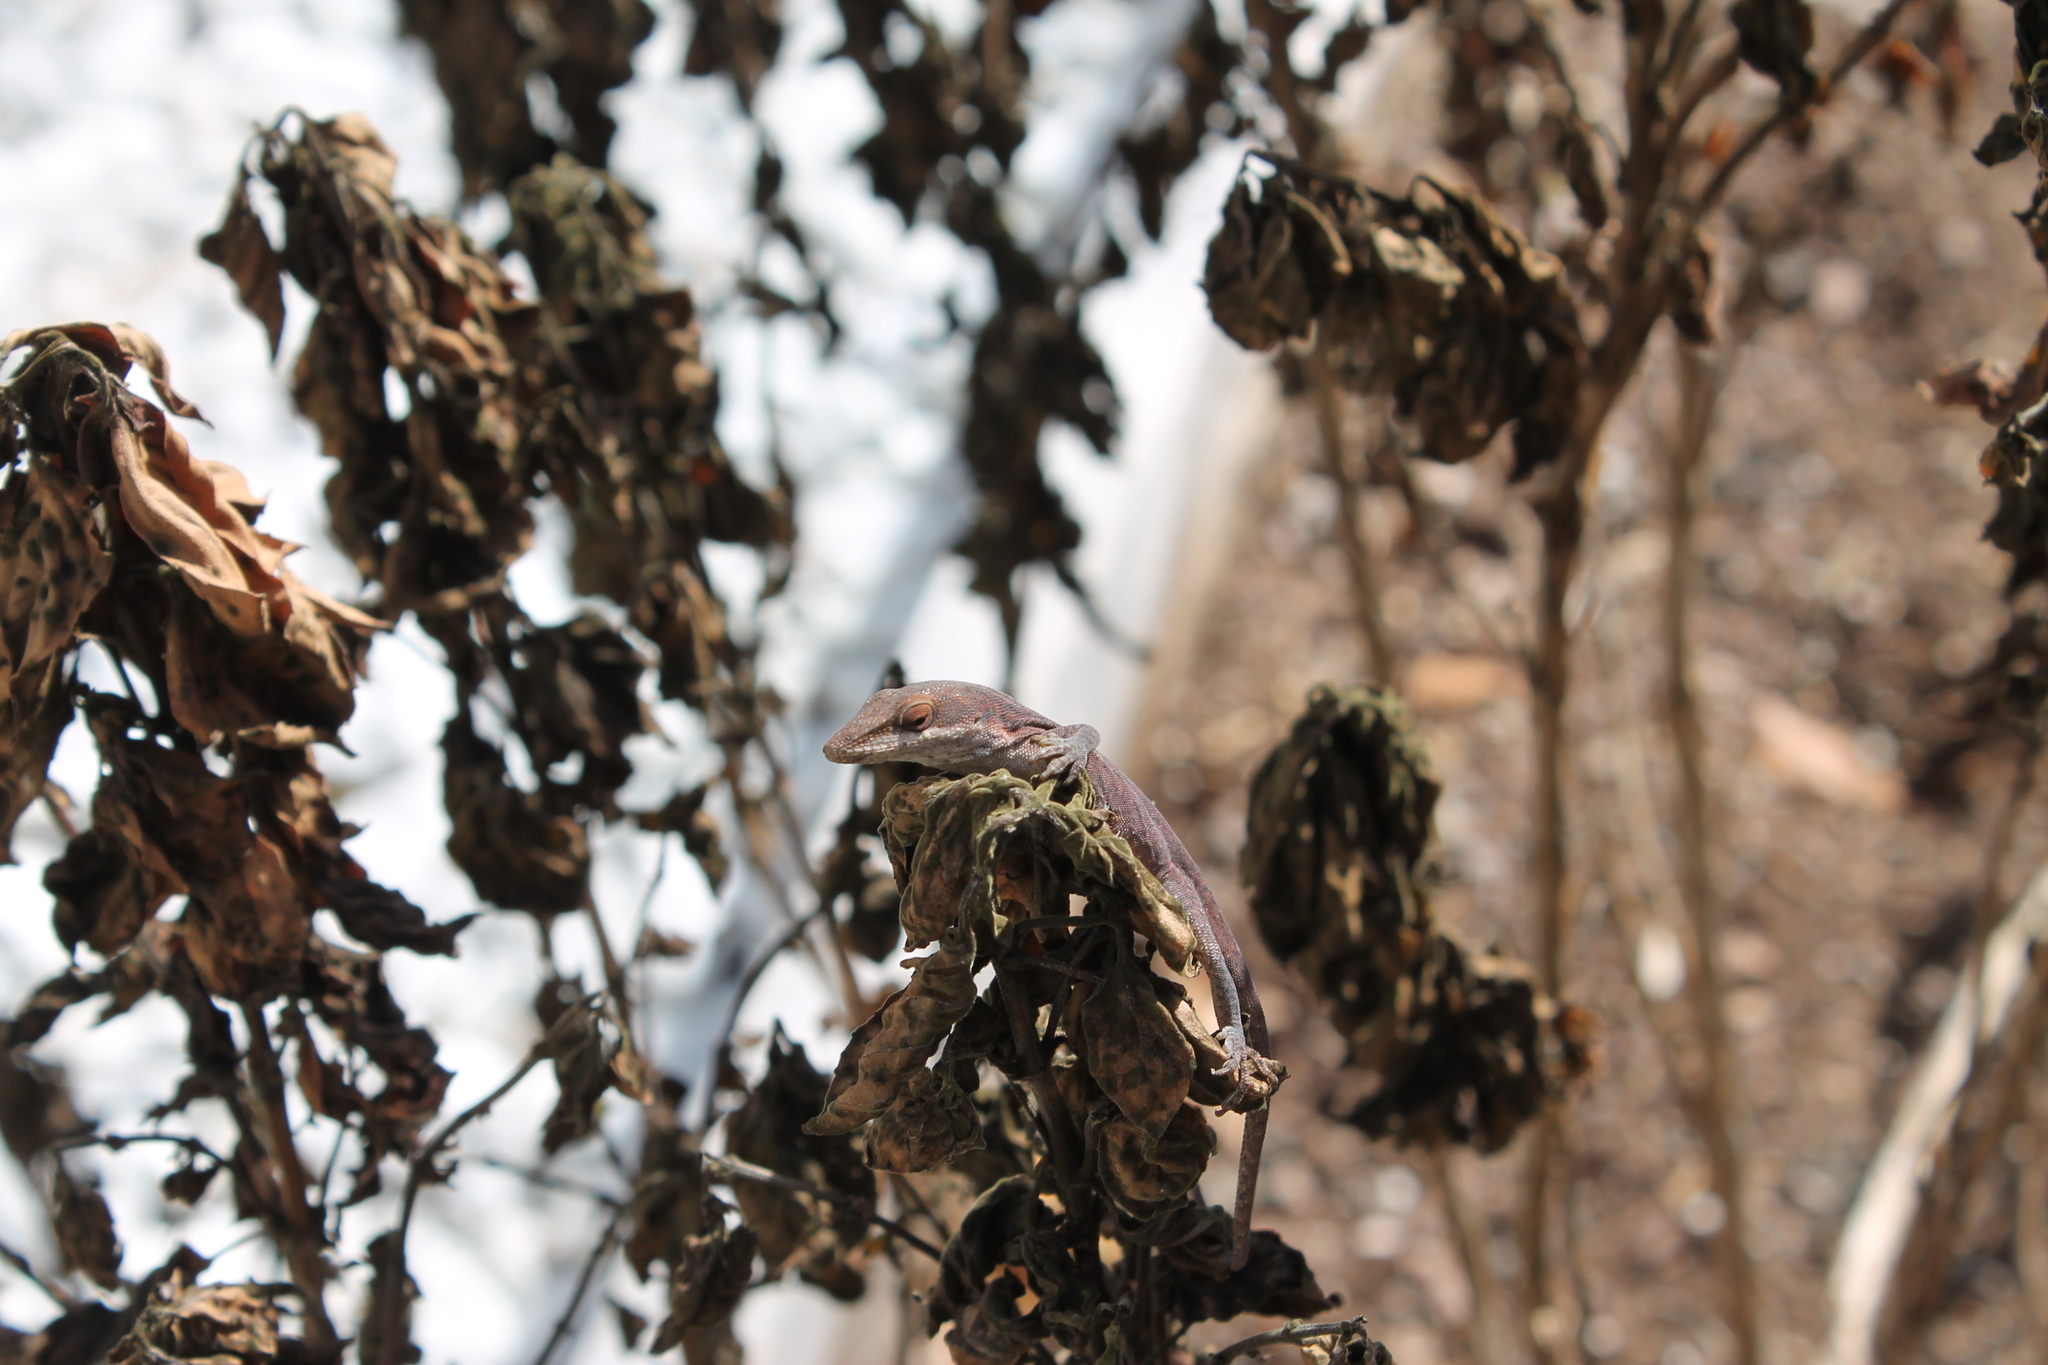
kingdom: Animalia
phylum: Chordata
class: Squamata
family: Dactyloidae
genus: Anolis
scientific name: Anolis carolinensis
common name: Green anole
